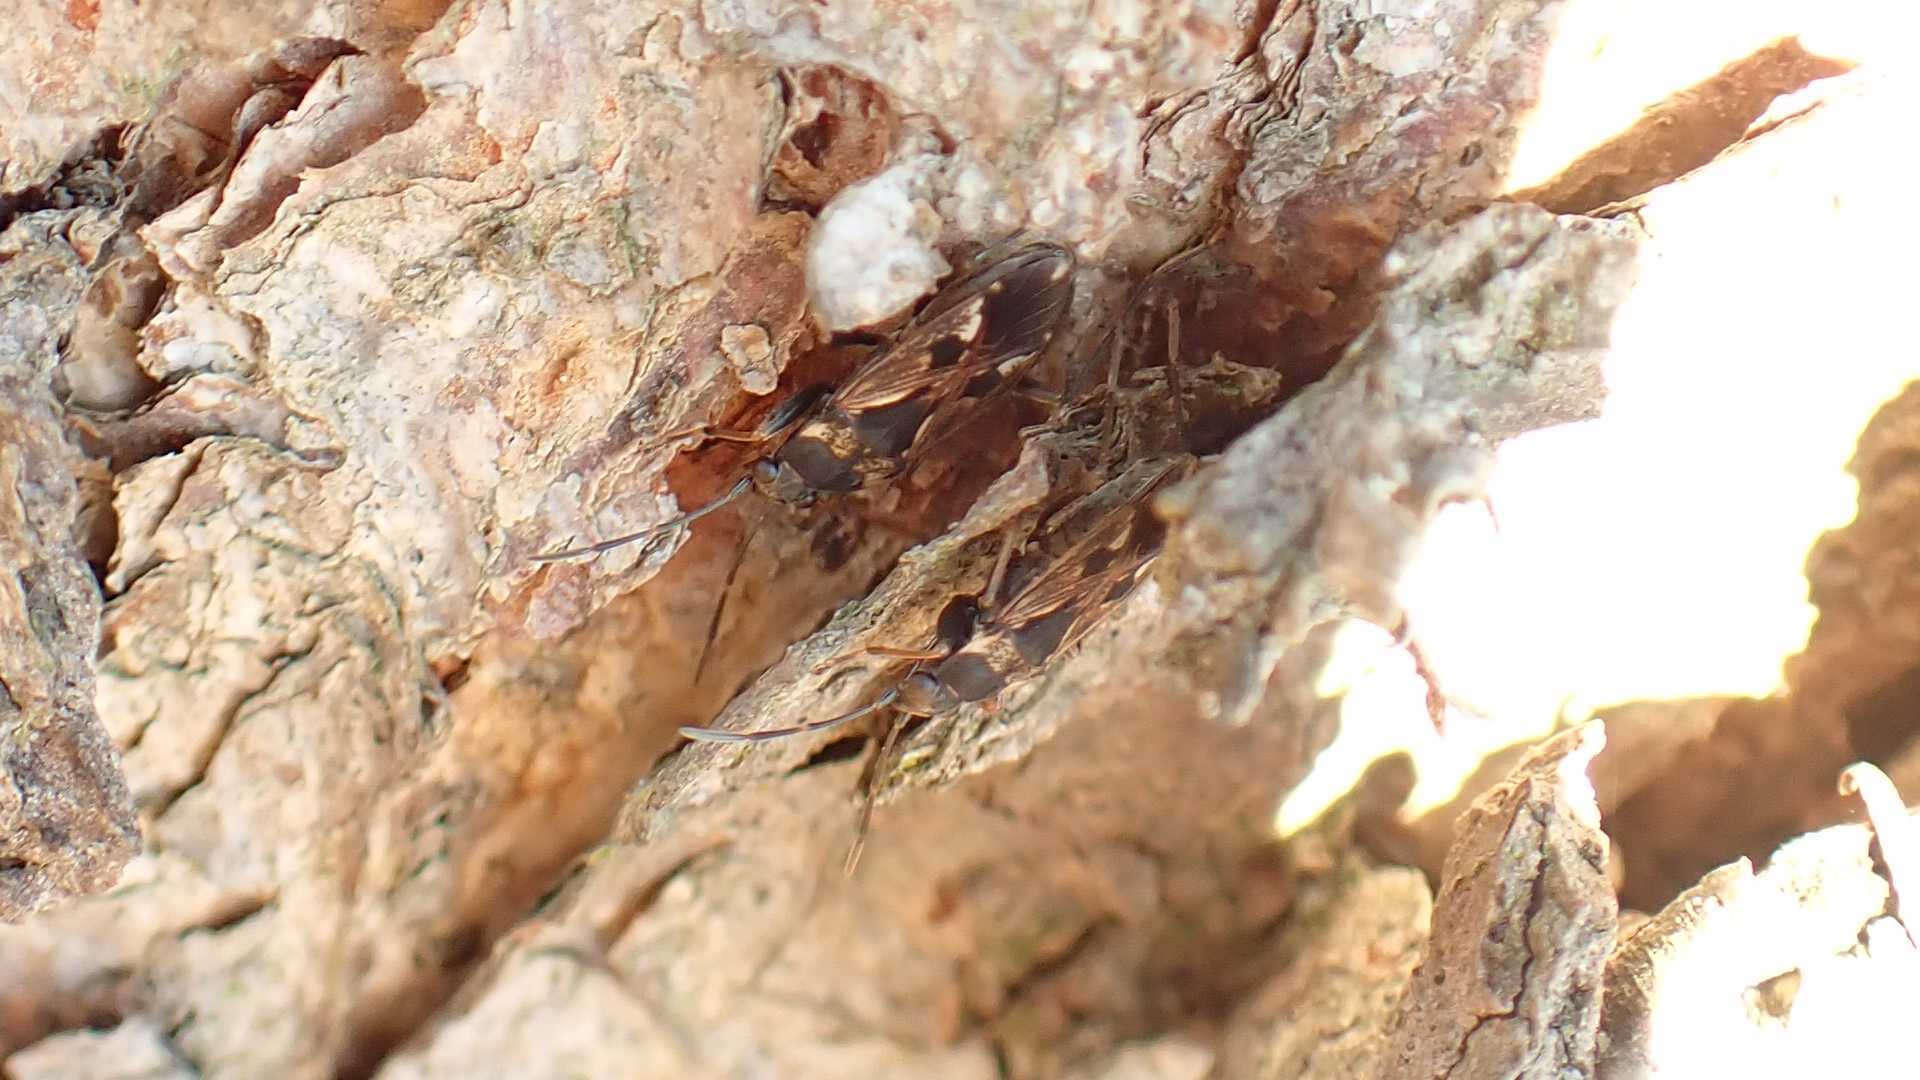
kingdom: Animalia
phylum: Arthropoda
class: Insecta
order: Hemiptera
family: Rhyparochromidae
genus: Rhyparochromus
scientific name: Rhyparochromus vulgaris
